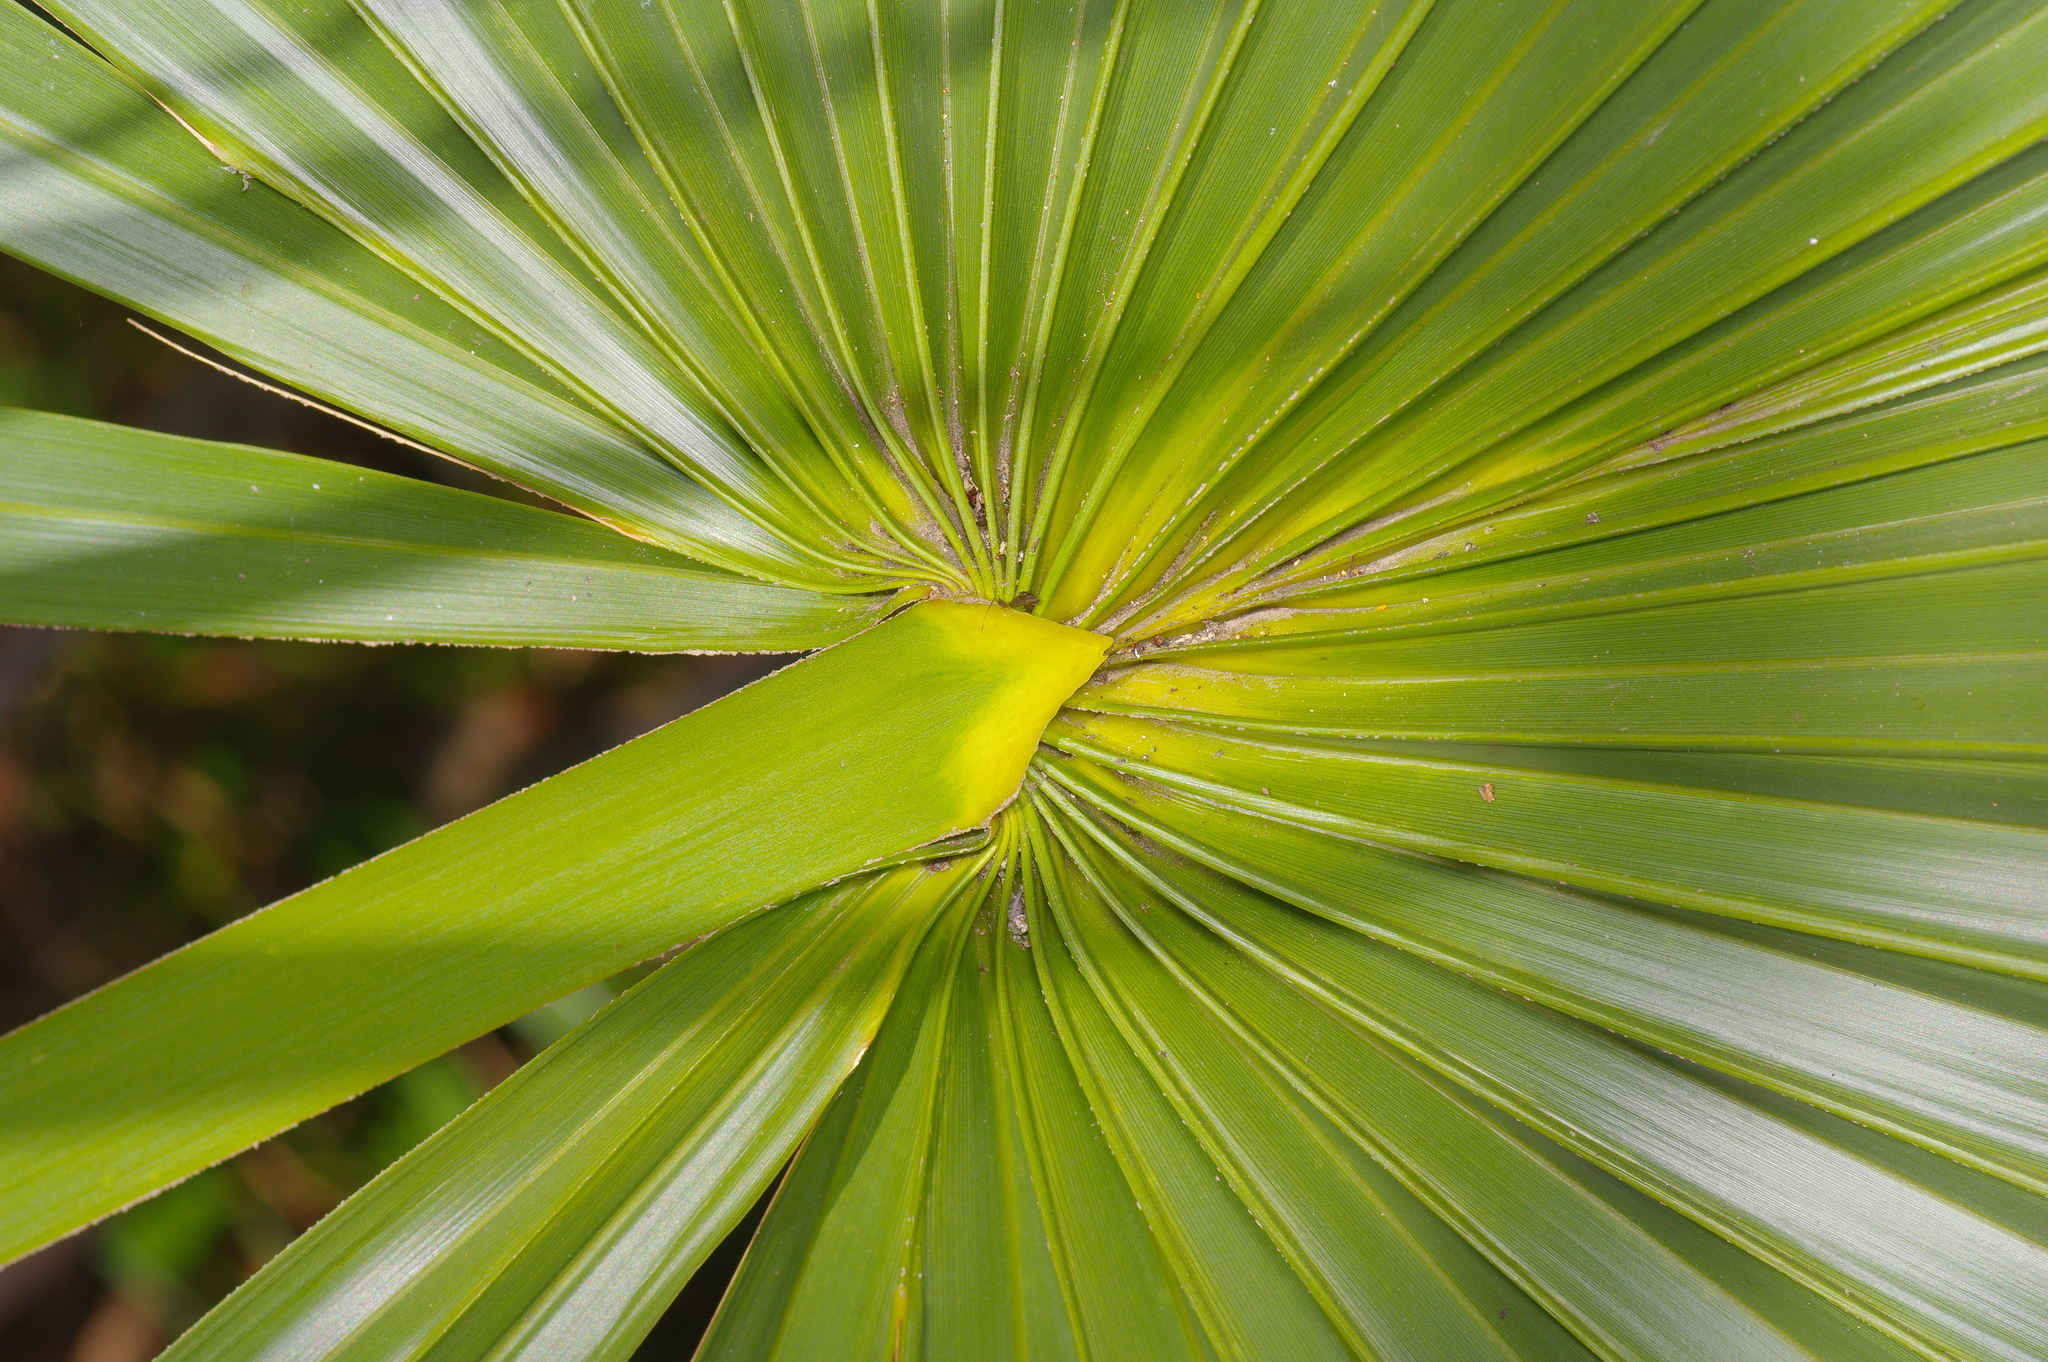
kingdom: Plantae
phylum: Tracheophyta
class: Liliopsida
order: Arecales
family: Arecaceae
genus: Sabal
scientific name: Sabal minor
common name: Dwarf palmetto
